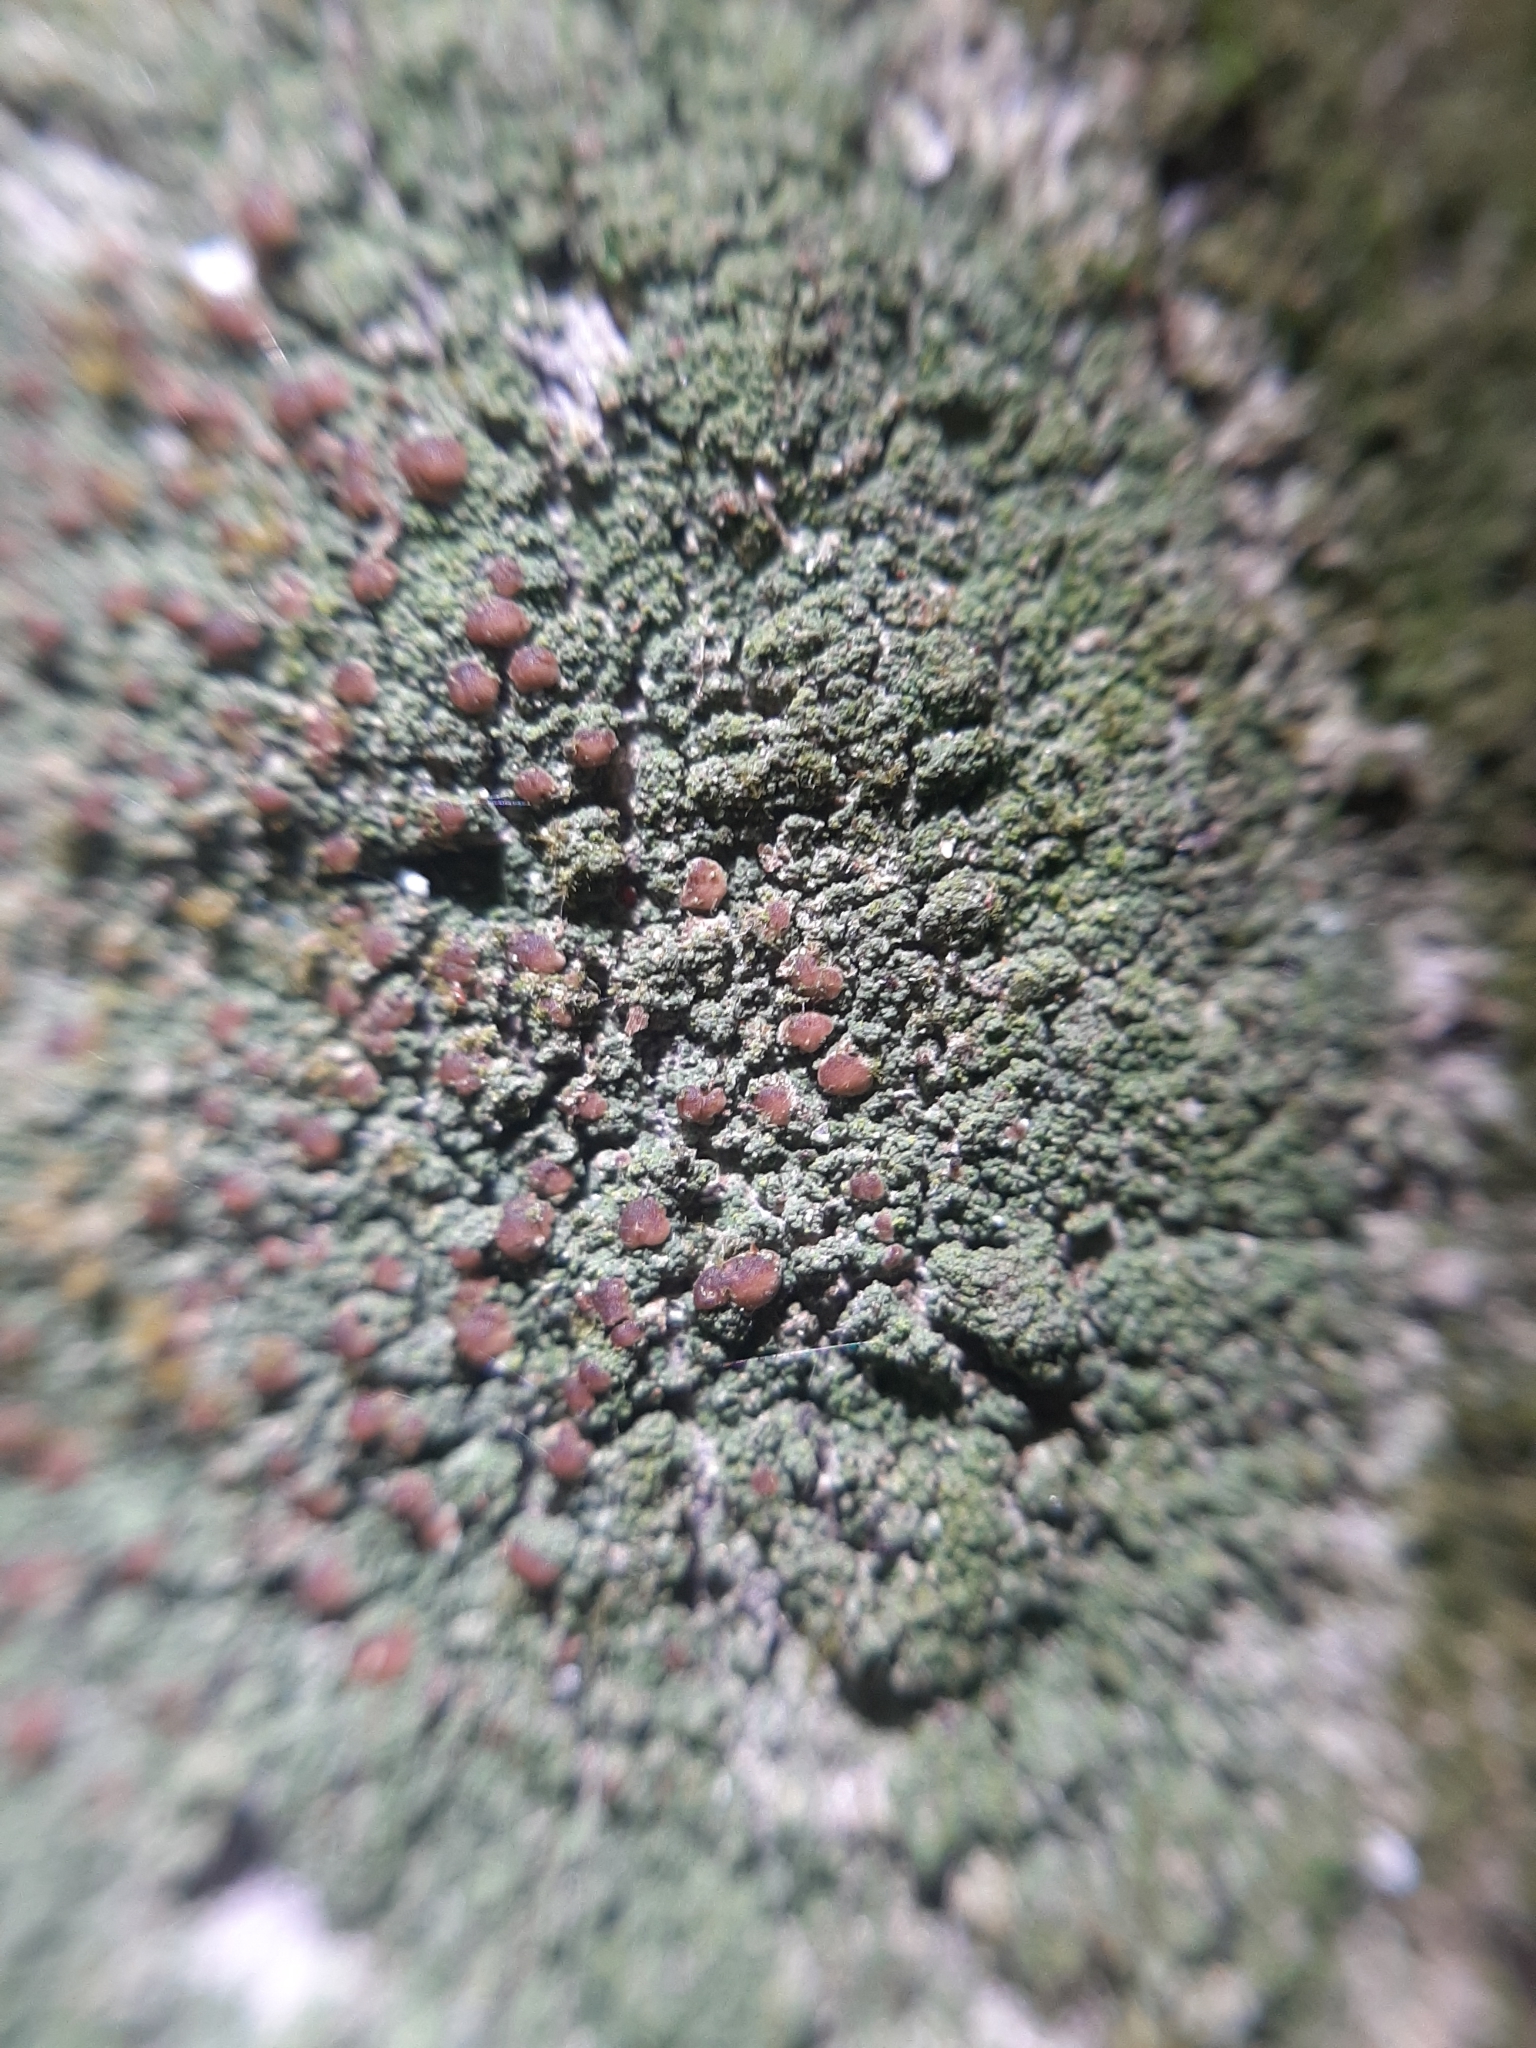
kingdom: Fungi
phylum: Ascomycota
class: Lecanoromycetes
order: Ostropales
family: Phlyctidaceae
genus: Phlyctella
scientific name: Phlyctella
